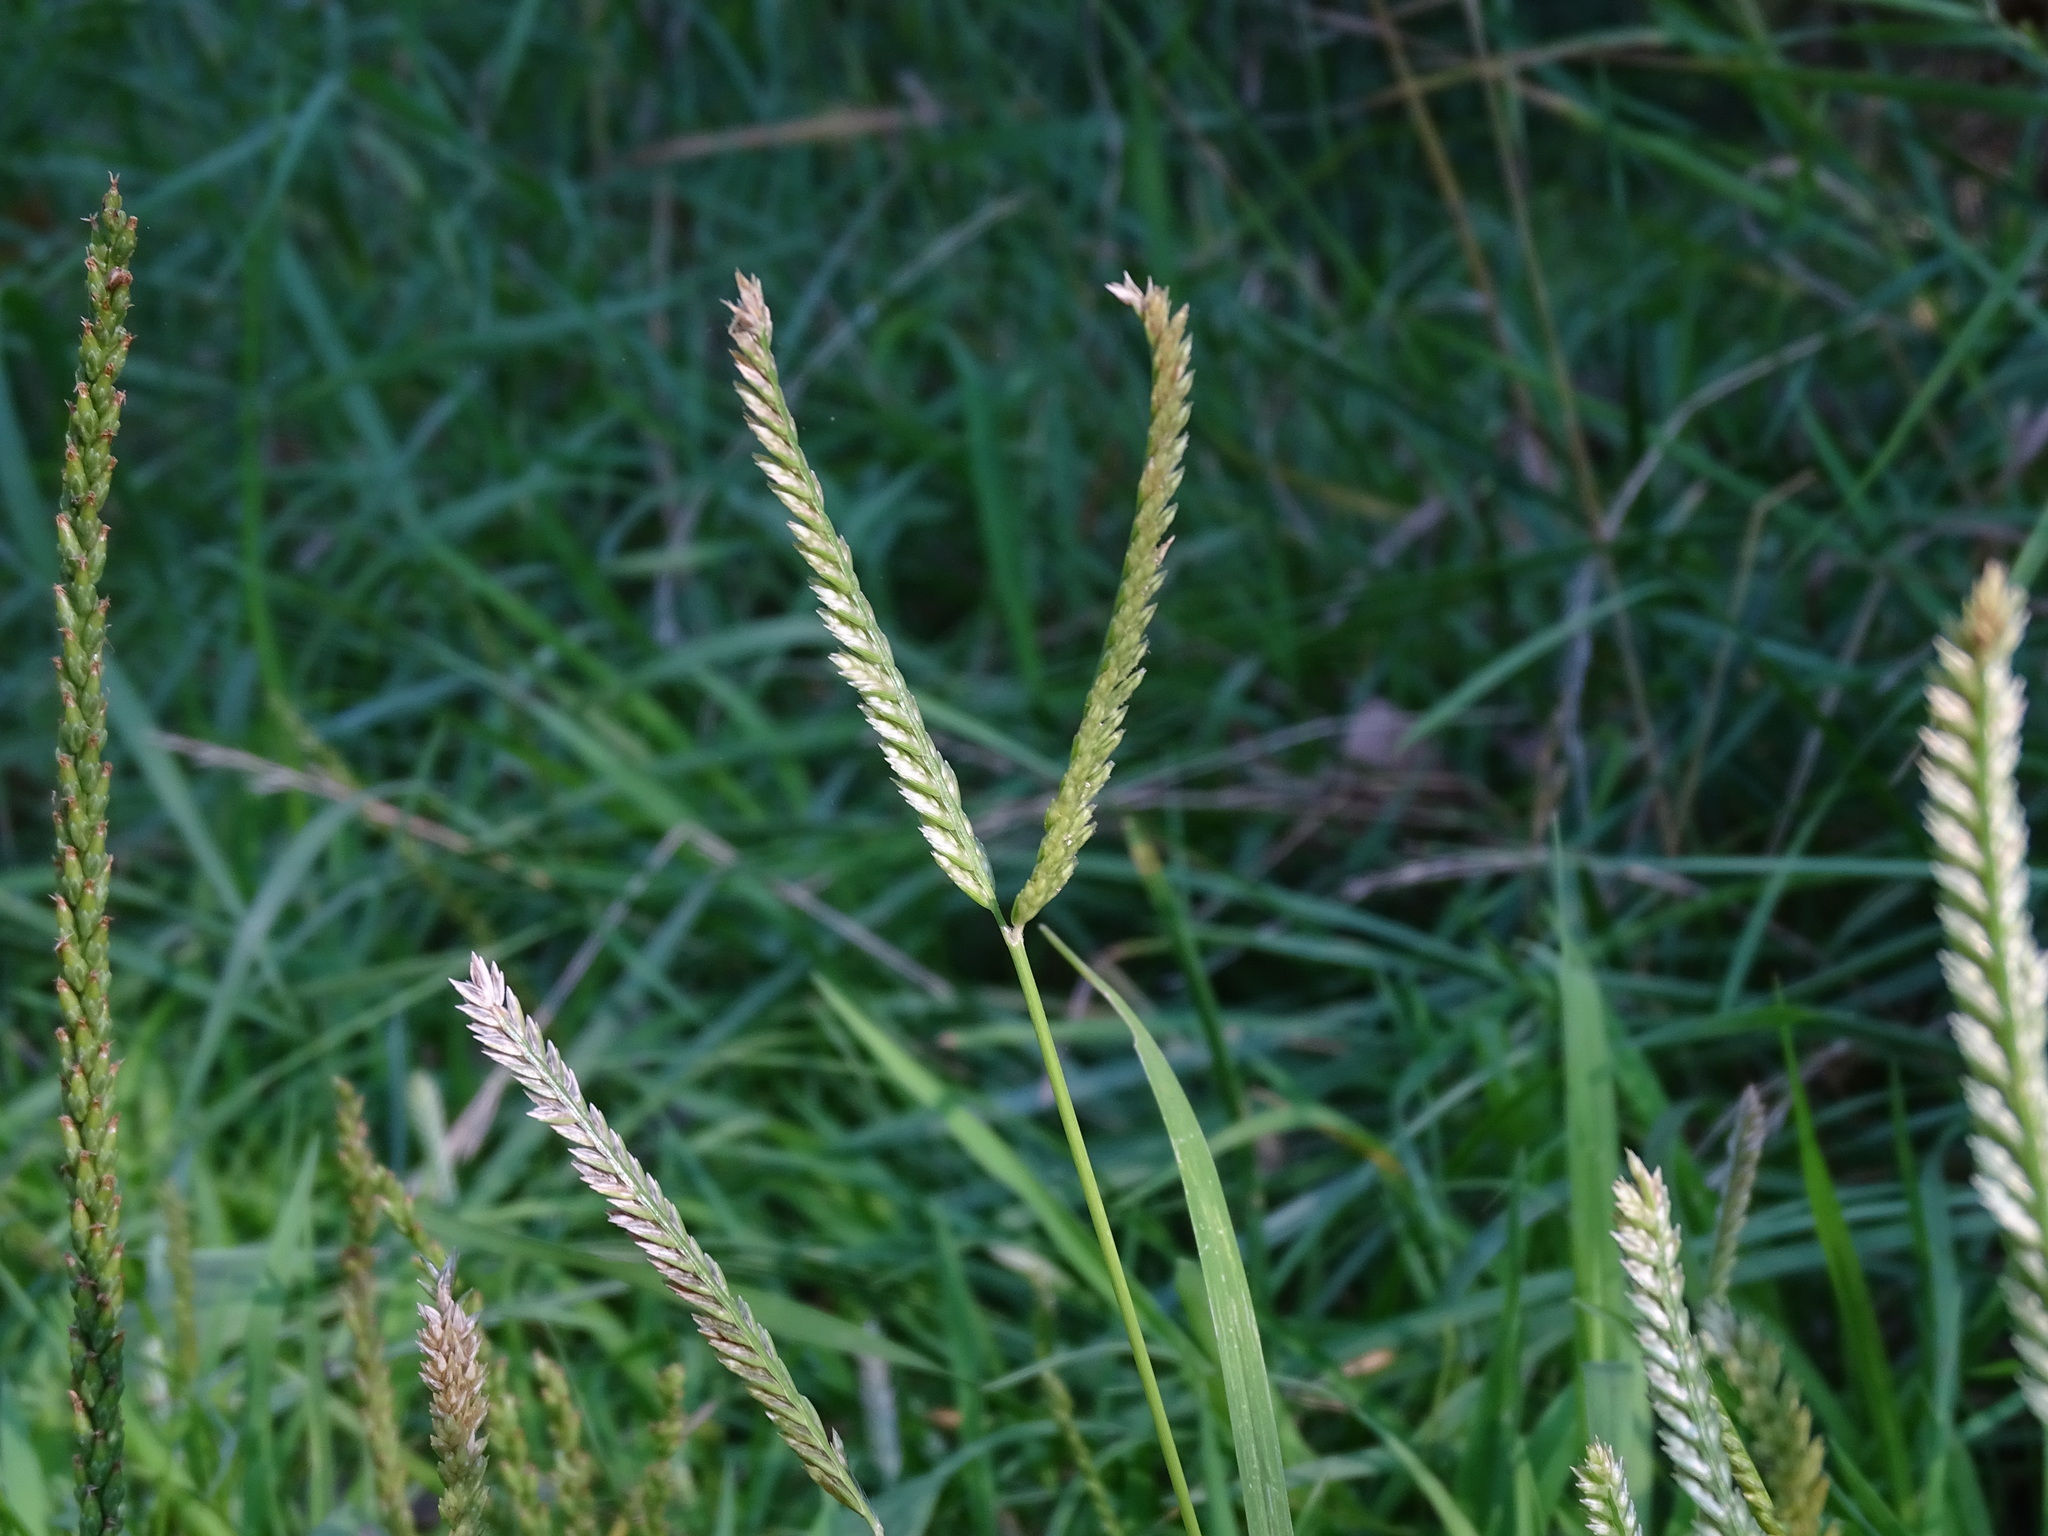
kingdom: Plantae
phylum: Tracheophyta
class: Liliopsida
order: Poales
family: Poaceae
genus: Eleusine
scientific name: Eleusine indica
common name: Yard-grass
